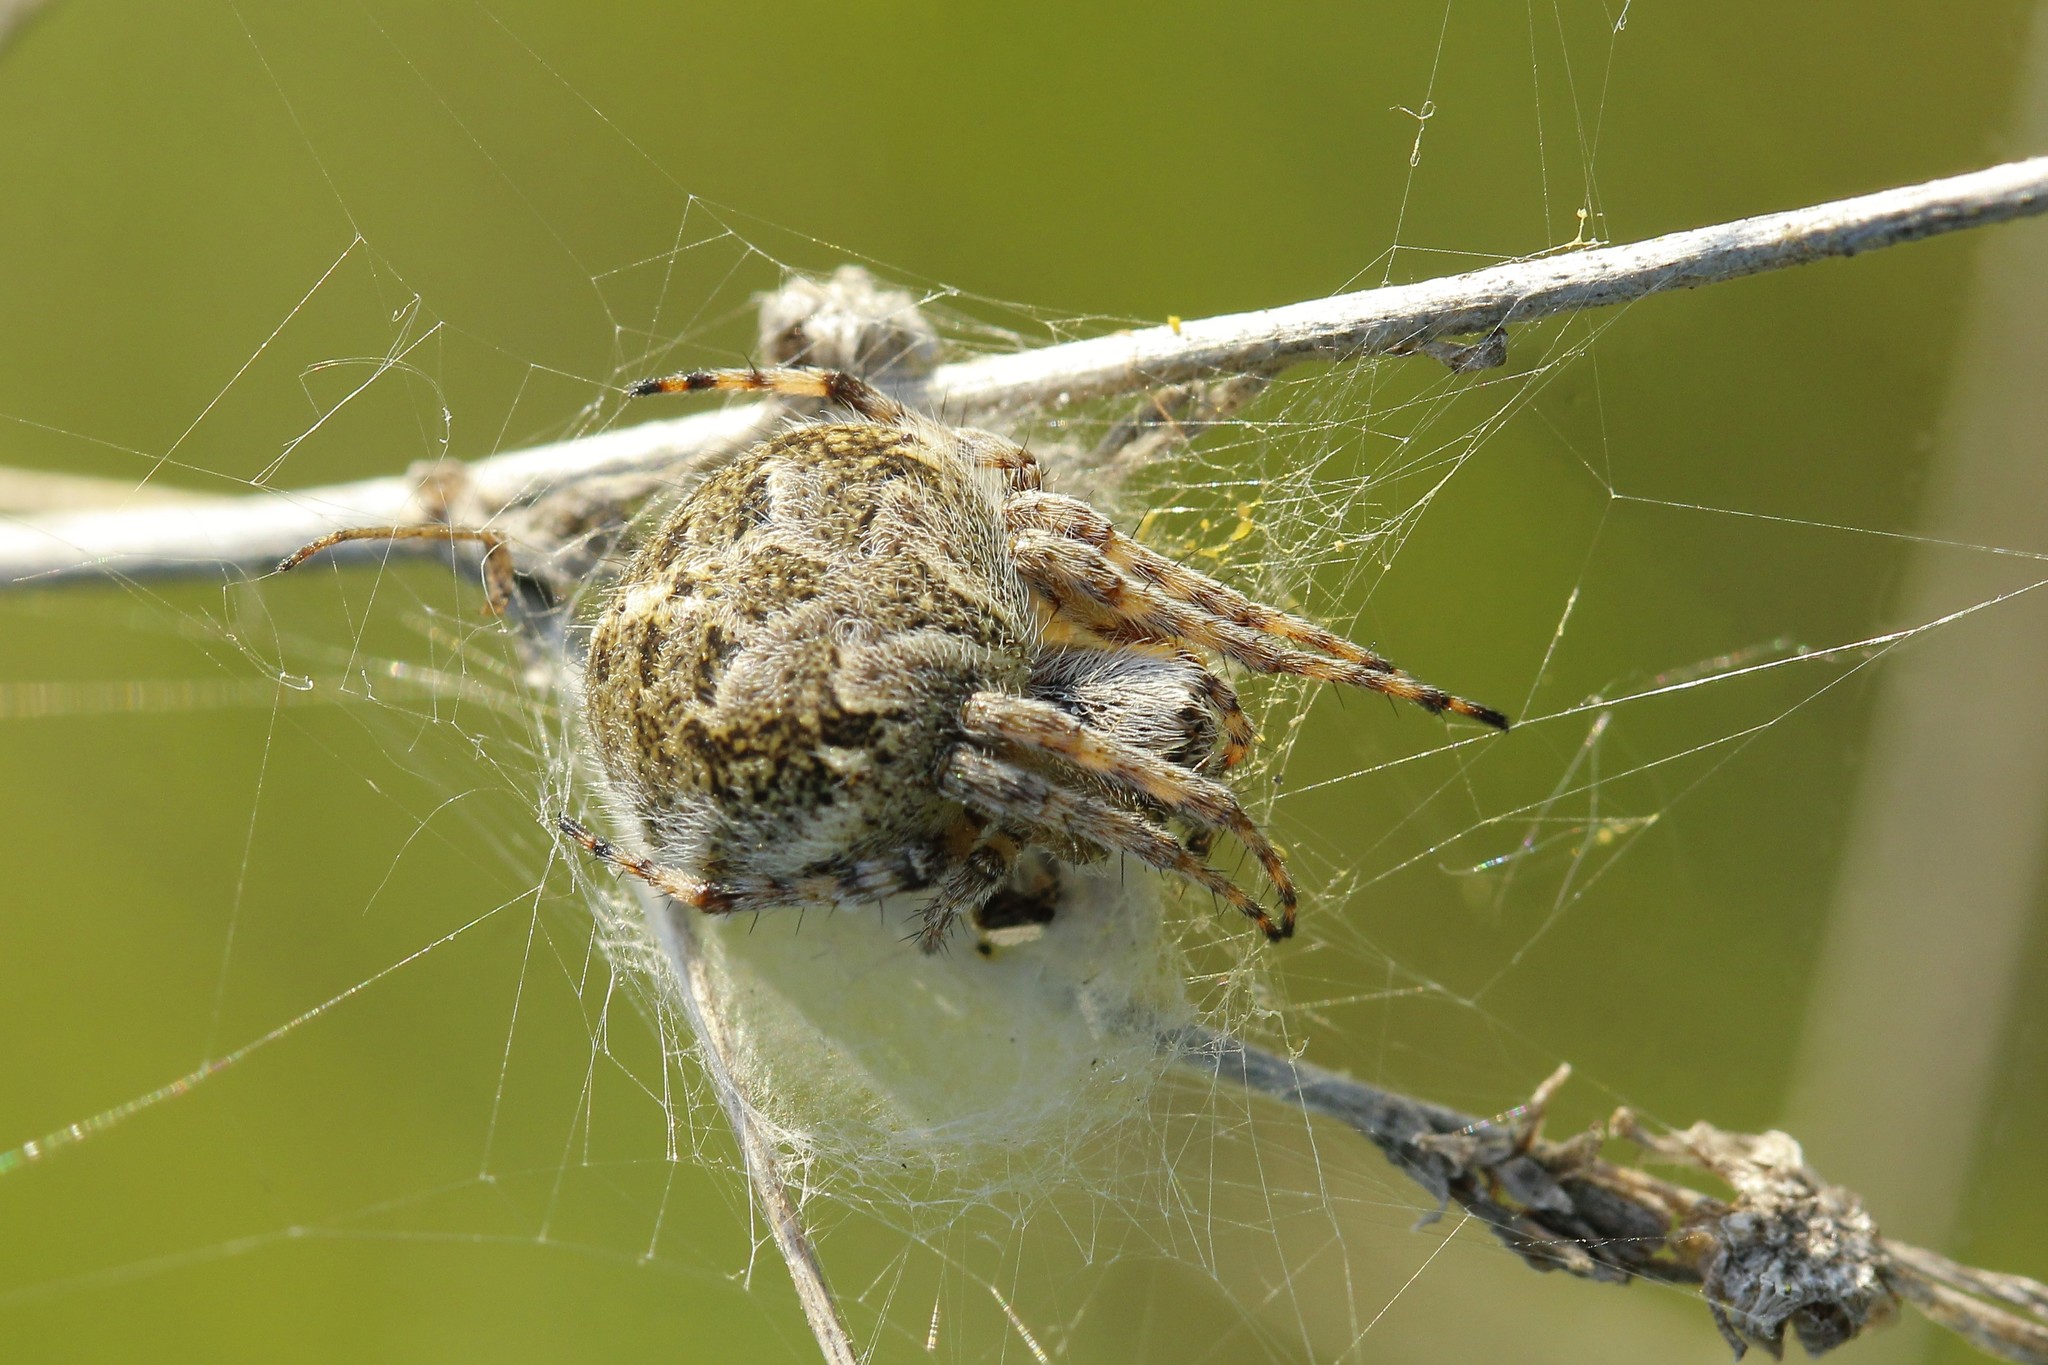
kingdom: Animalia
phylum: Arthropoda
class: Arachnida
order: Araneae
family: Araneidae
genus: Agalenatea
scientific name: Agalenatea redii
